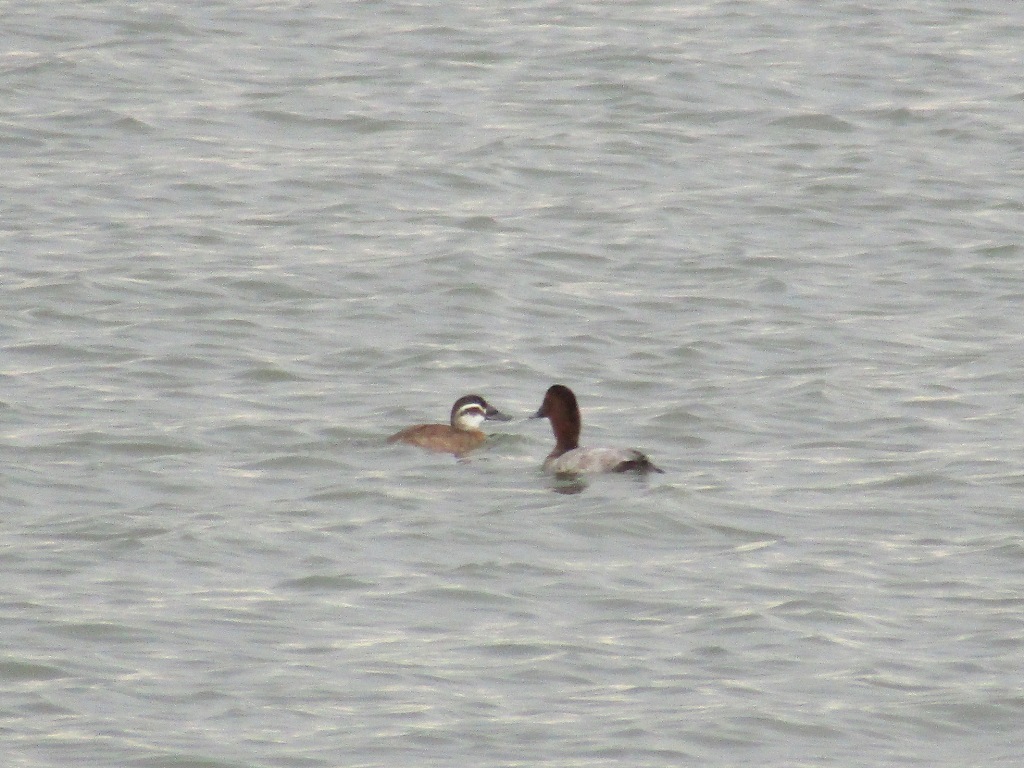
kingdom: Animalia
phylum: Chordata
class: Aves
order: Anseriformes
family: Anatidae
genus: Oxyura
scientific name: Oxyura leucocephala
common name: White-headed duck
